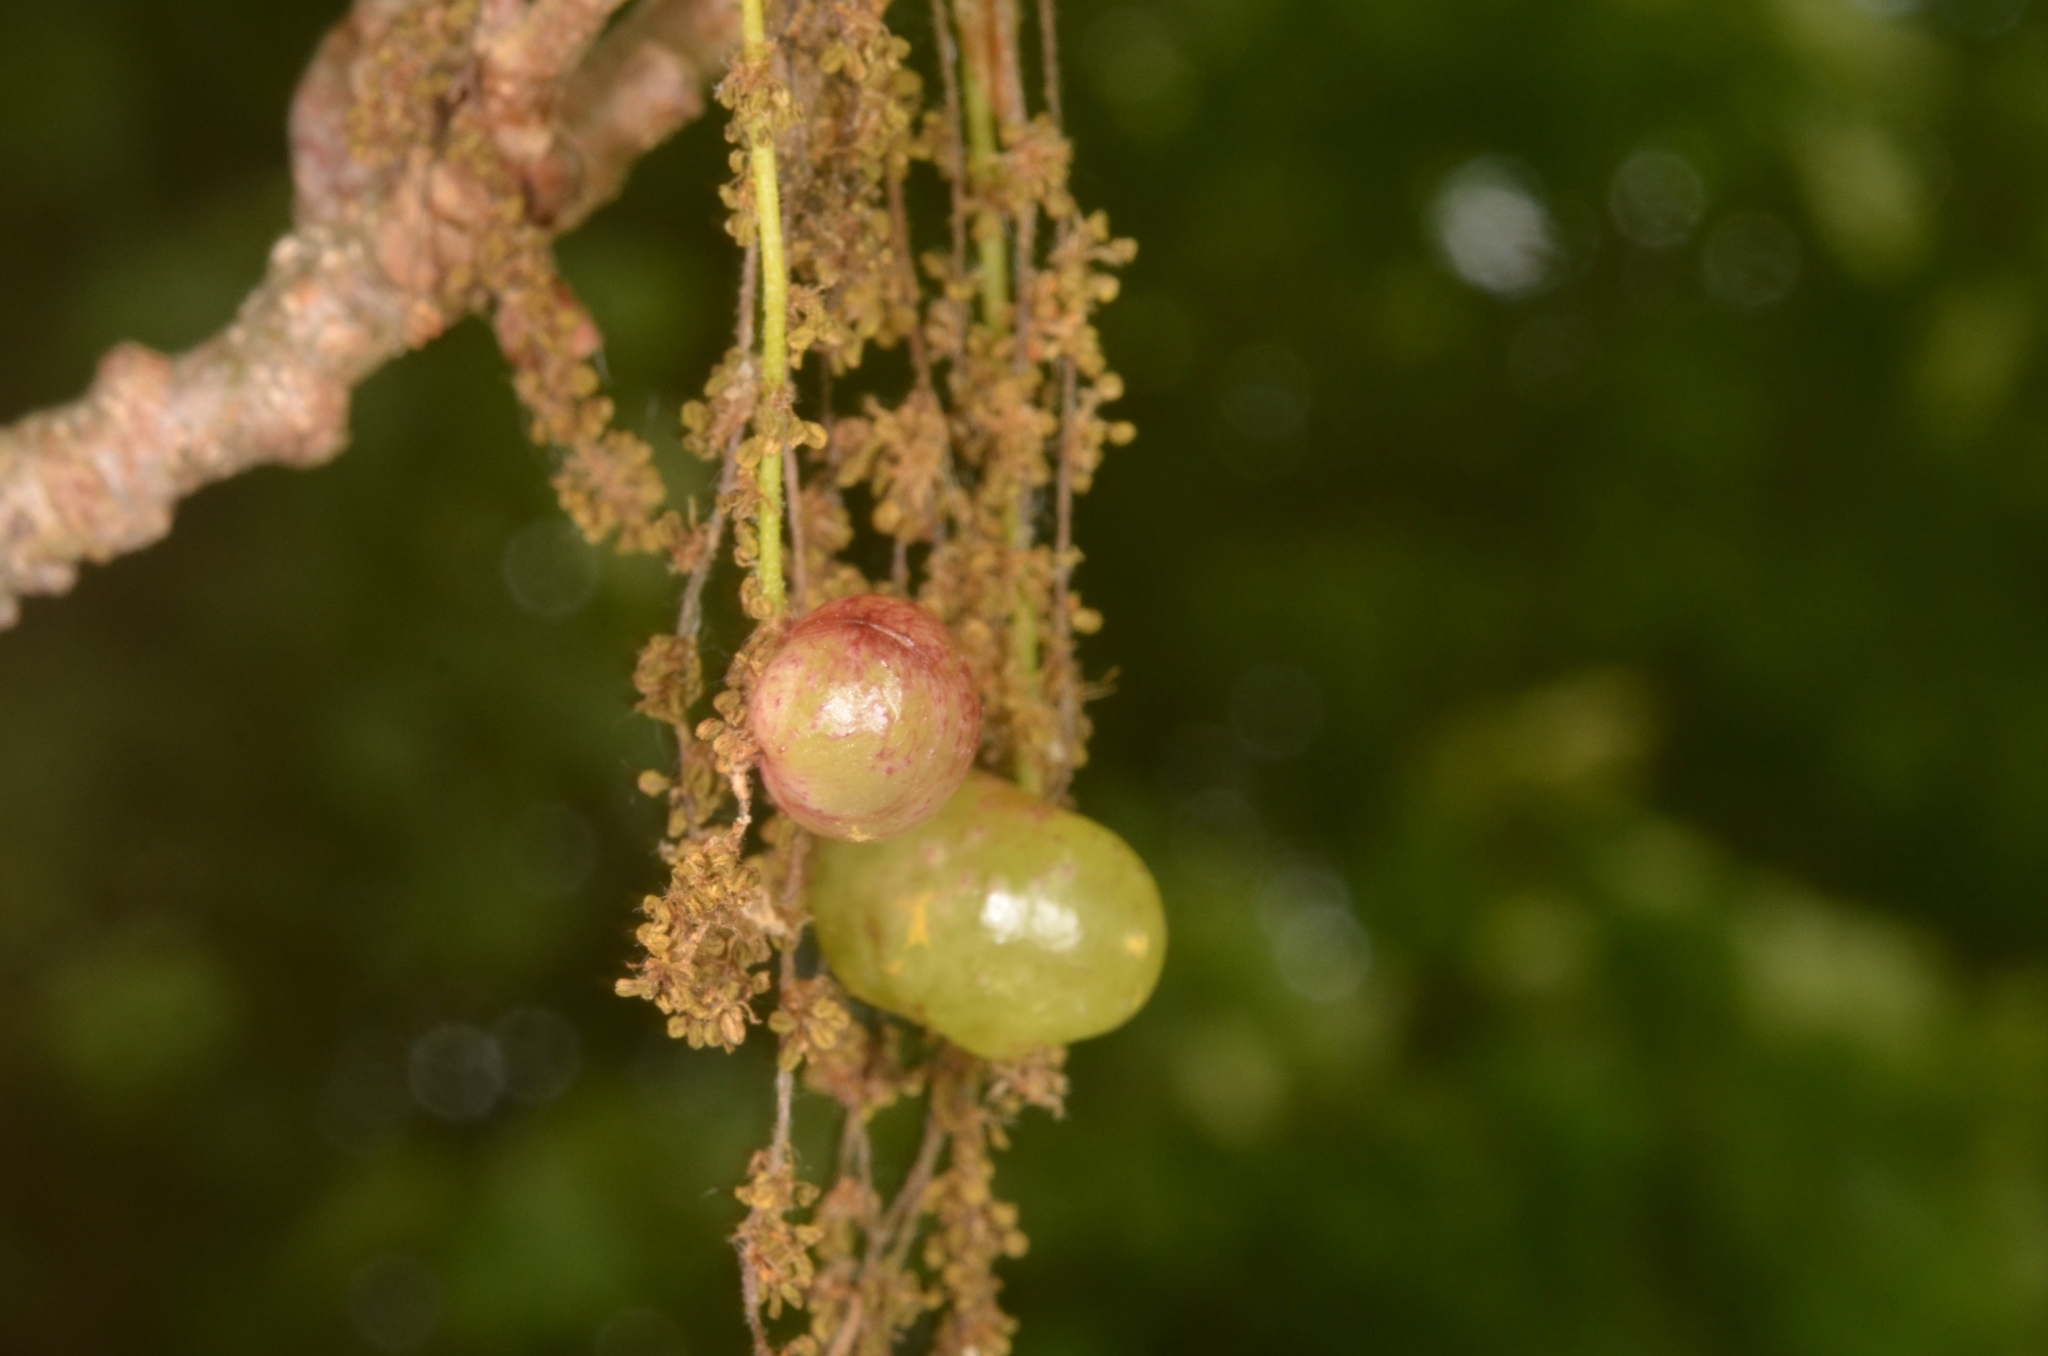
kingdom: Animalia
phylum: Arthropoda
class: Insecta
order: Hymenoptera
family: Cynipidae
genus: Neuroterus
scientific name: Neuroterus quercusbaccarum
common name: Common spangle gall
